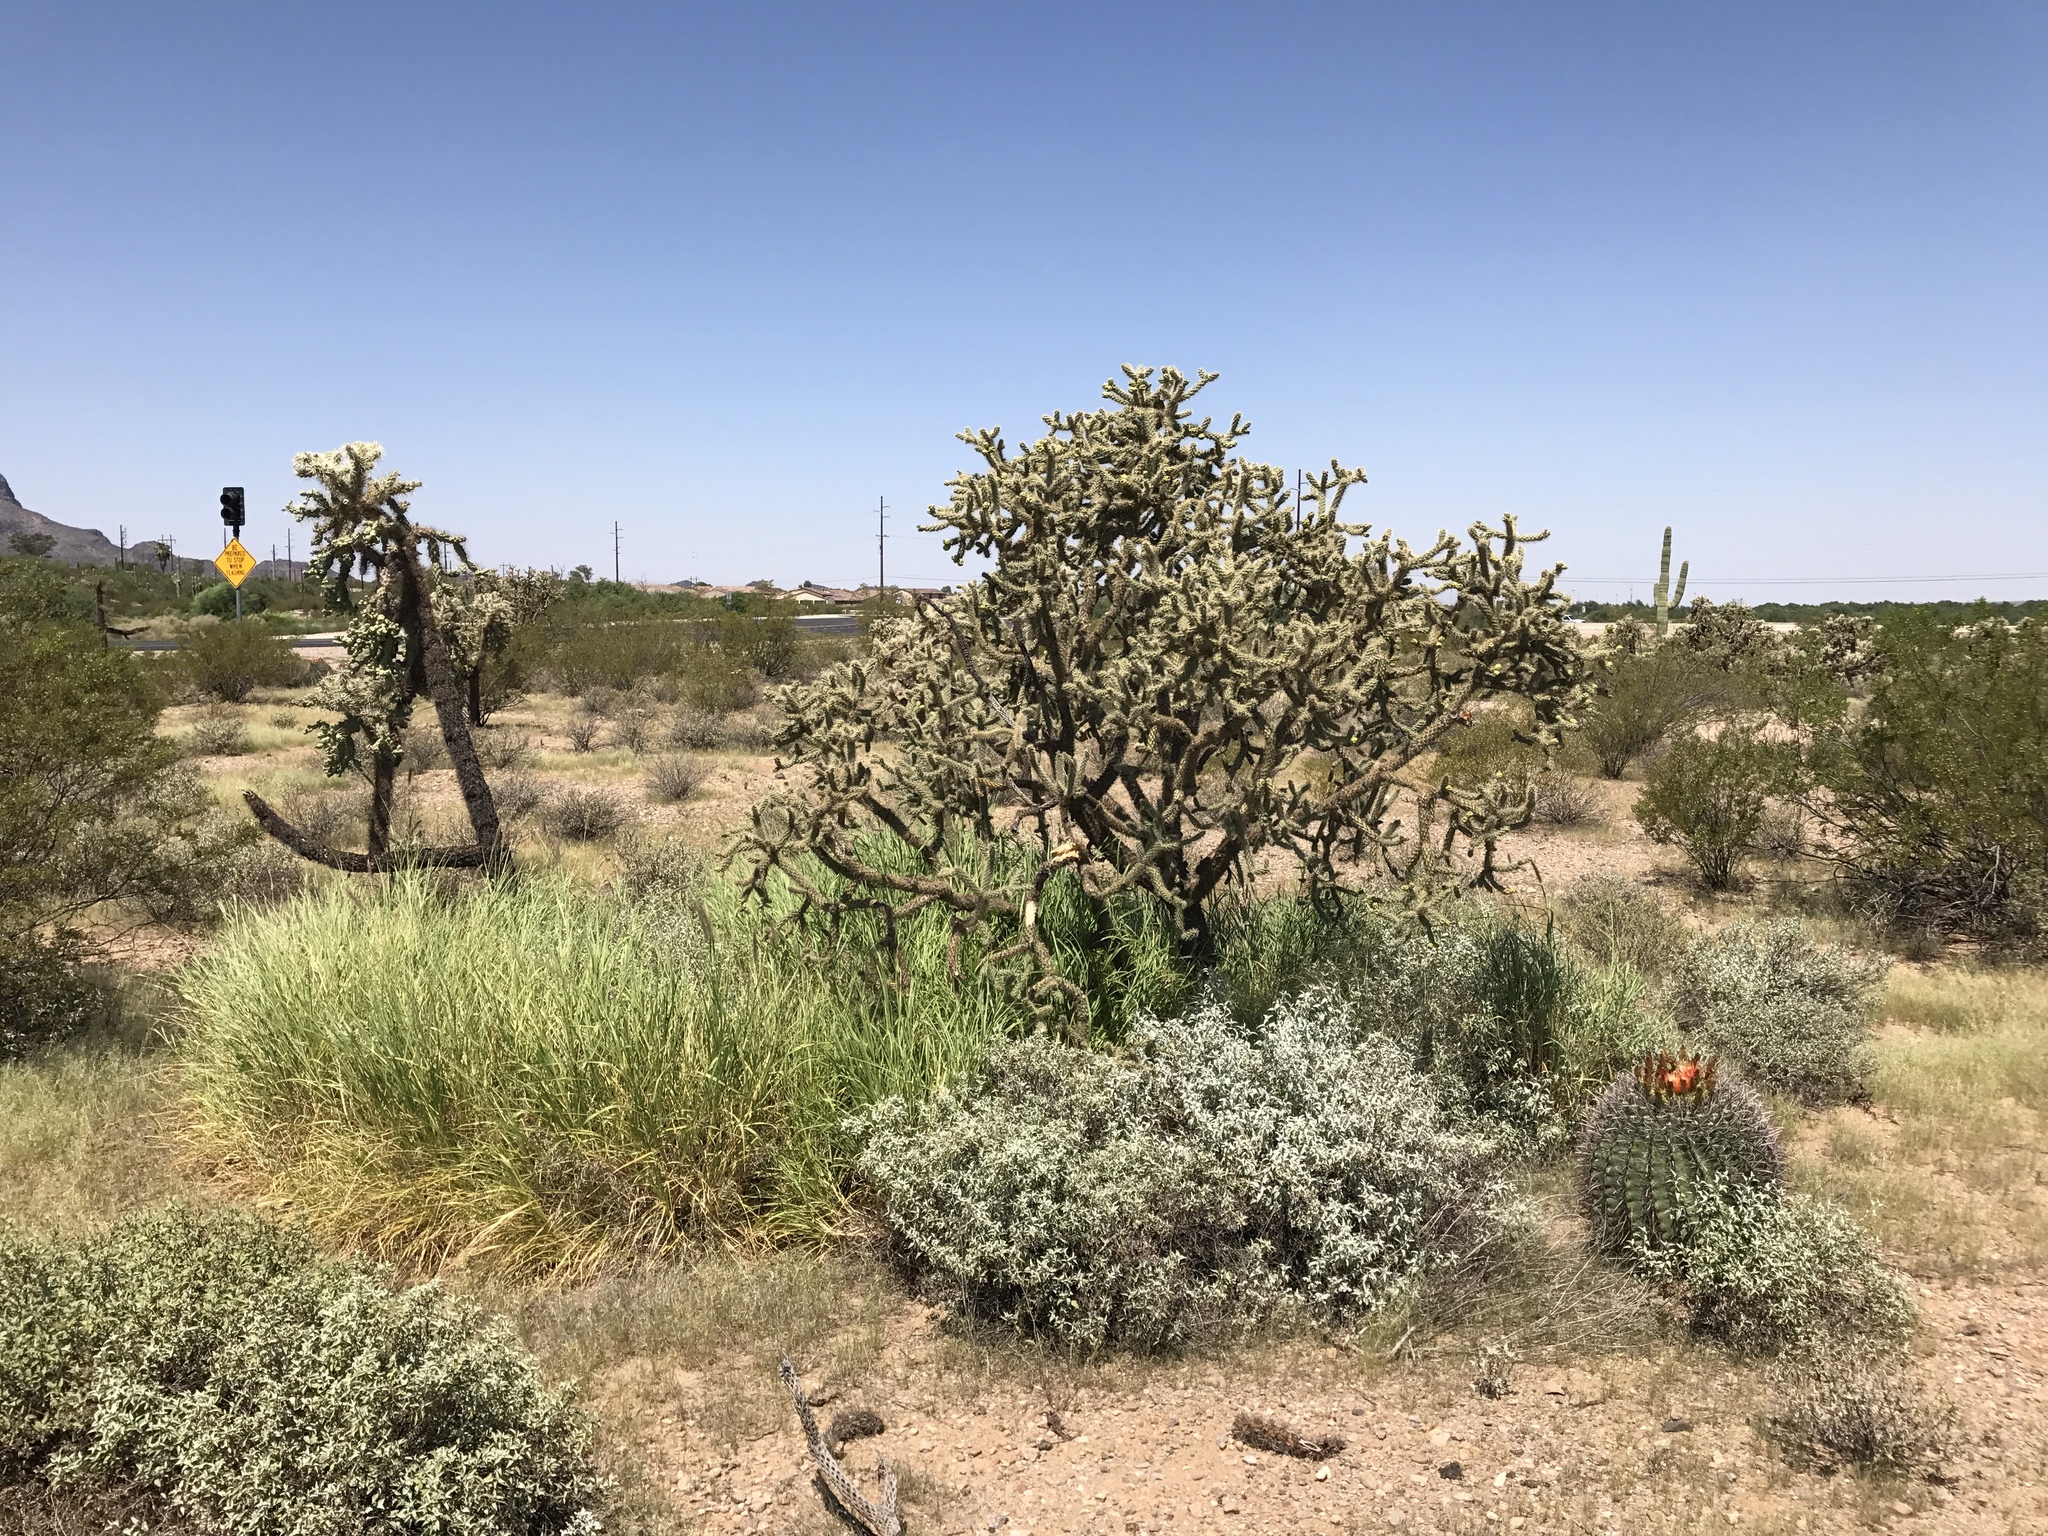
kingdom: Plantae
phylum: Tracheophyta
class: Magnoliopsida
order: Caryophyllales
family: Cactaceae
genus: Cylindropuntia
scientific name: Cylindropuntia fulgida
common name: Jumping cholla
